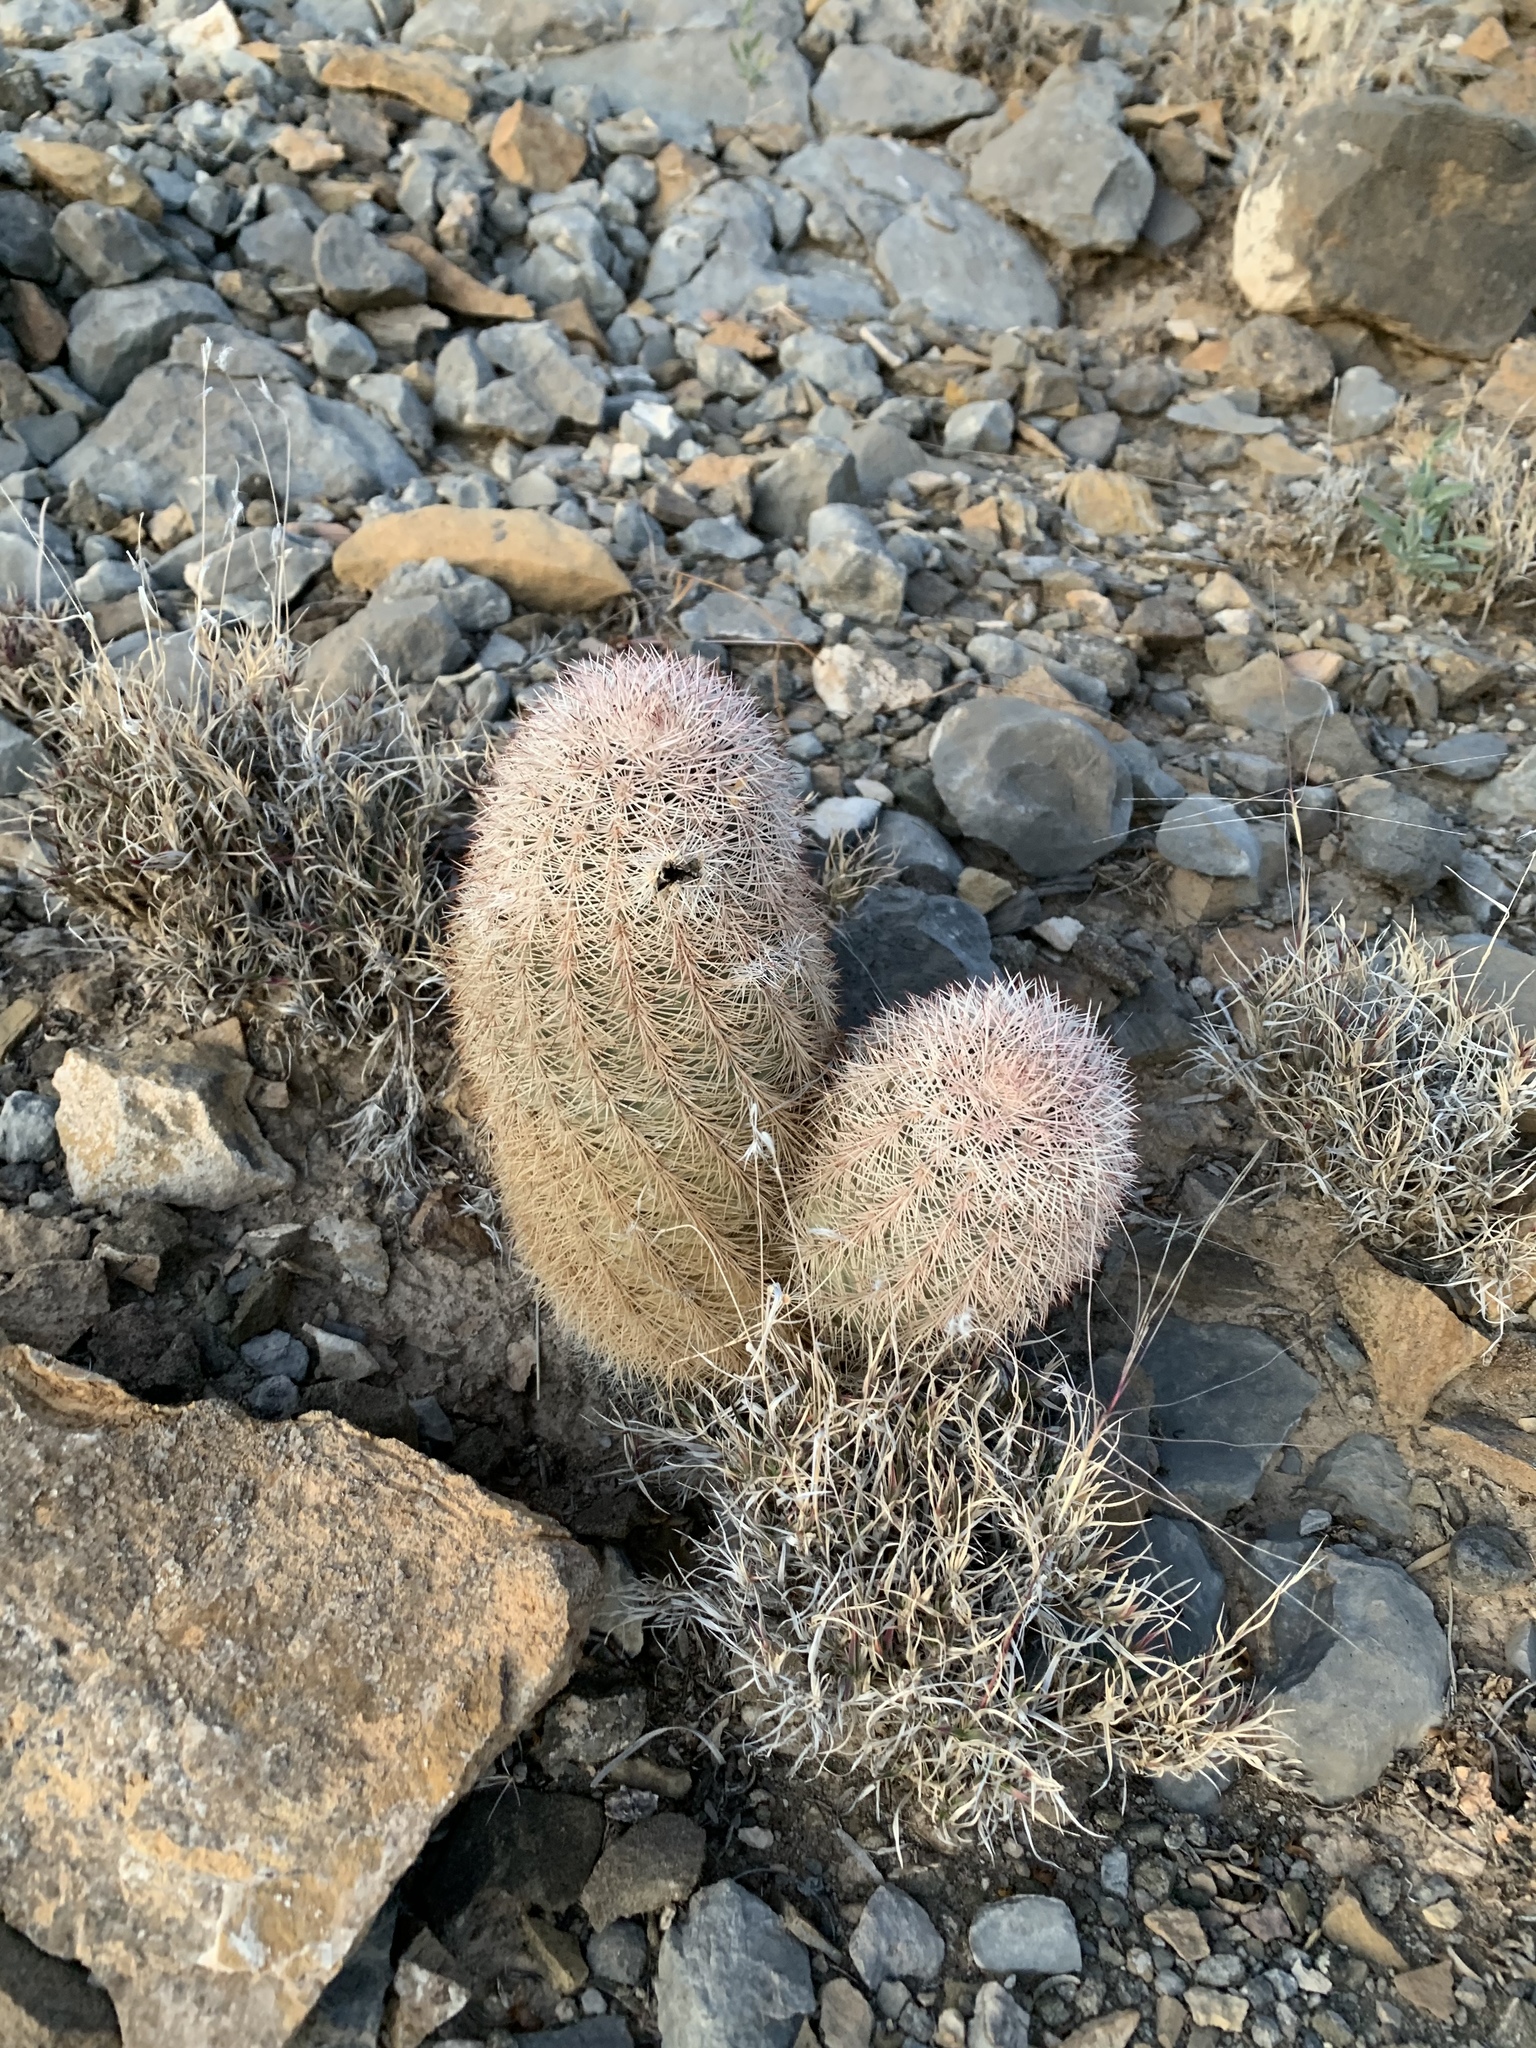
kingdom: Plantae
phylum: Tracheophyta
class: Magnoliopsida
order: Caryophyllales
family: Cactaceae
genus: Echinocereus
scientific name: Echinocereus dasyacanthus
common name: Spiny hedgehog cactus
